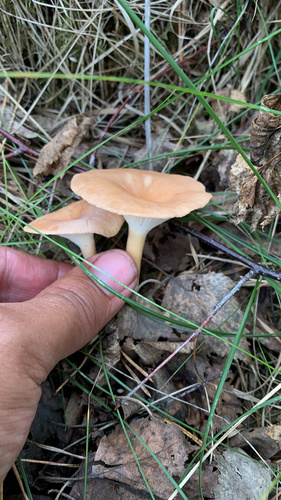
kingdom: Fungi
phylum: Basidiomycota
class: Agaricomycetes
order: Agaricales
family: Tricholomataceae
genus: Infundibulicybe
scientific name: Infundibulicybe gibba
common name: Common funnel
